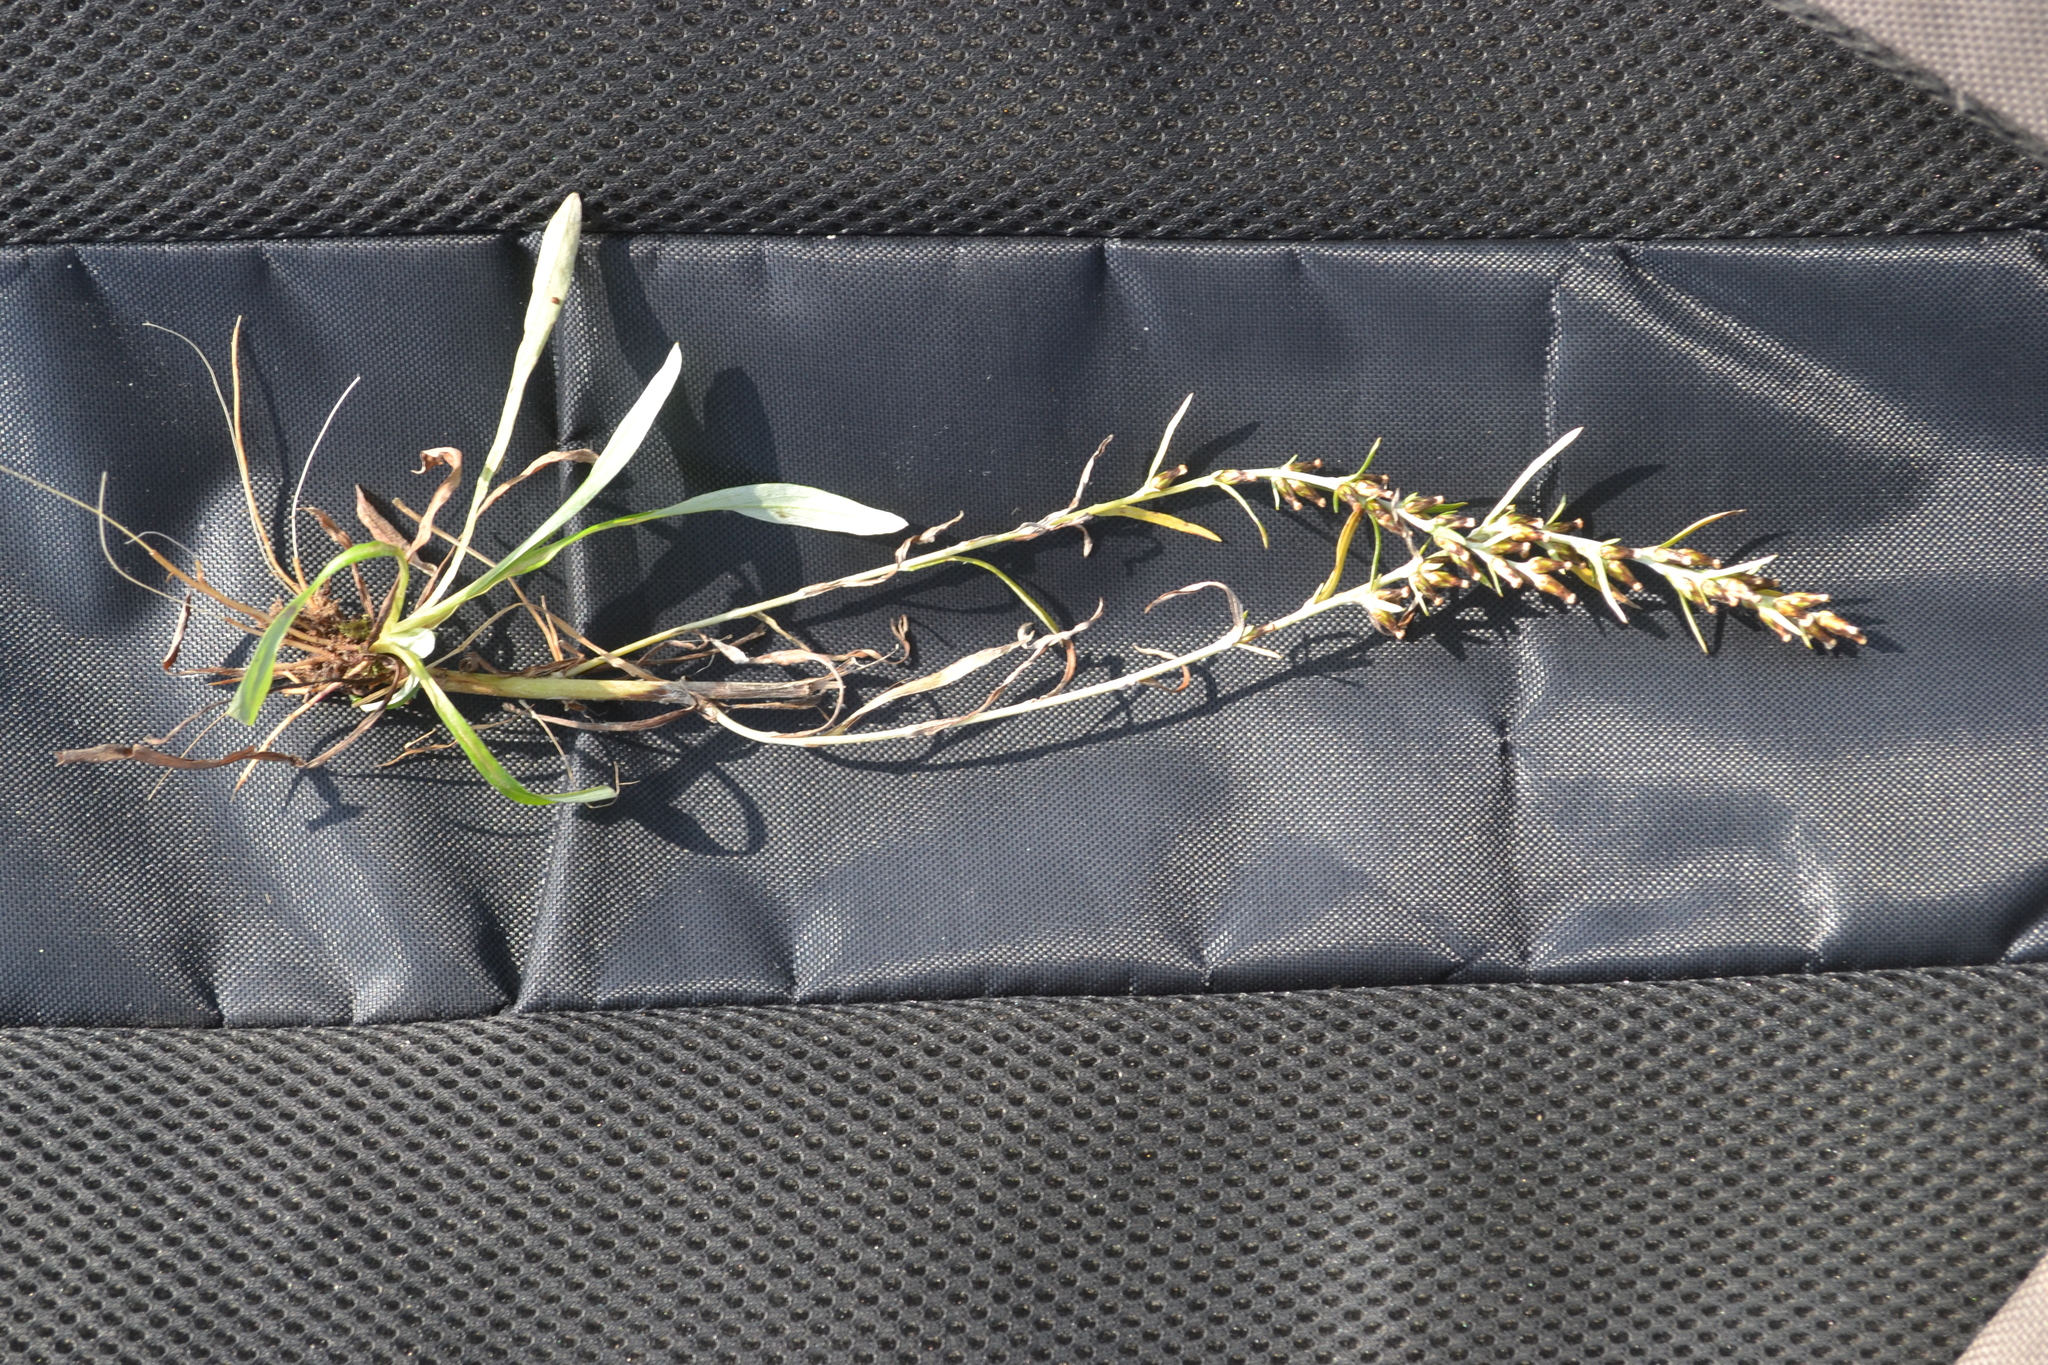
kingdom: Plantae
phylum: Tracheophyta
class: Magnoliopsida
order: Asterales
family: Asteraceae
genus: Omalotheca
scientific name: Omalotheca sylvatica
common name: Heath cudweed
